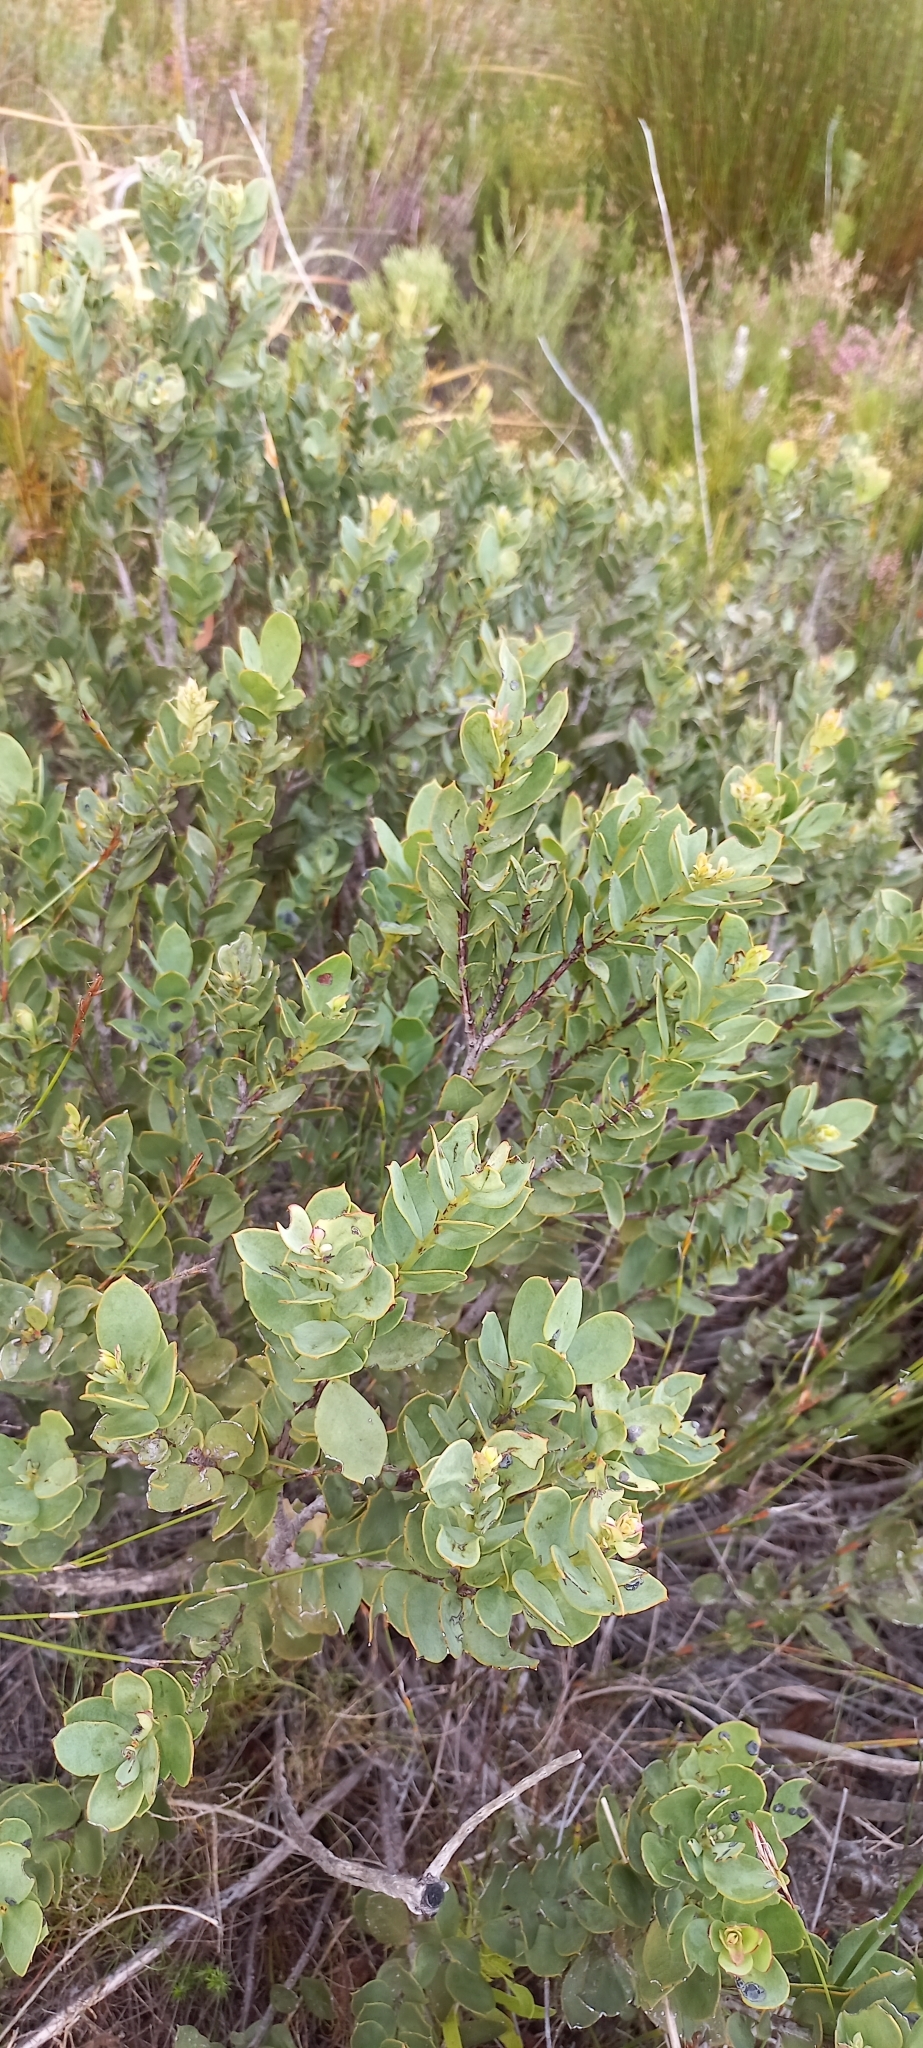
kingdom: Plantae
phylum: Tracheophyta
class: Magnoliopsida
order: Santalales
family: Santalaceae
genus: Osyris
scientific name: Osyris compressa
